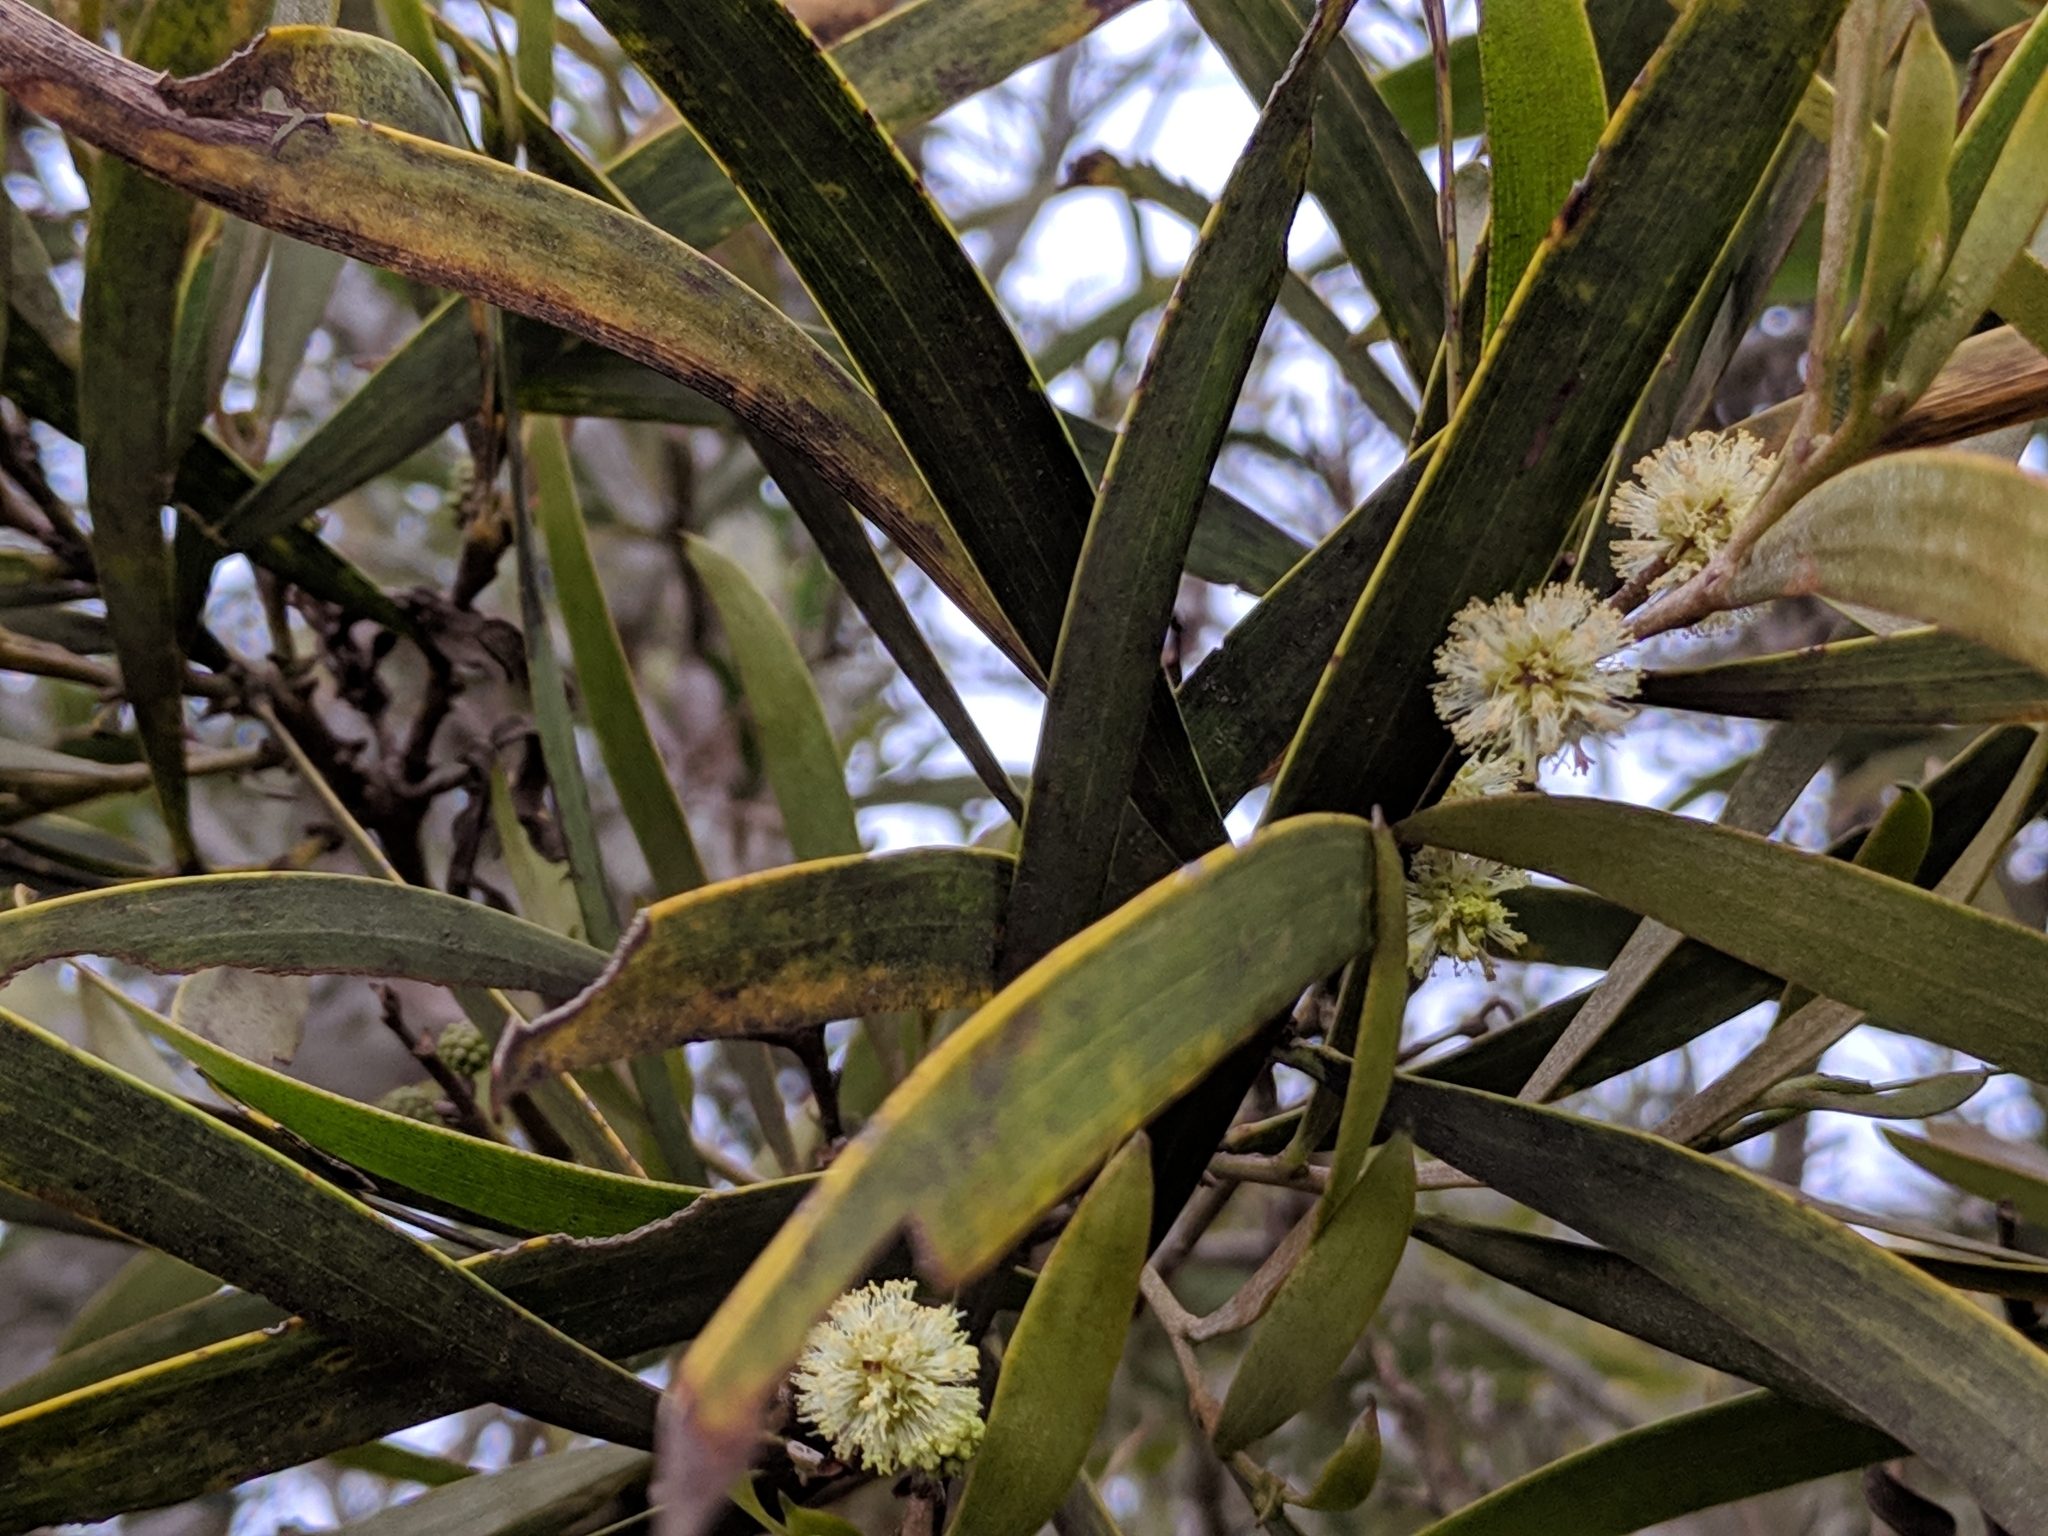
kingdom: Plantae
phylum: Tracheophyta
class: Magnoliopsida
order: Fabales
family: Fabaceae
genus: Acacia
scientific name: Acacia heterophylla
